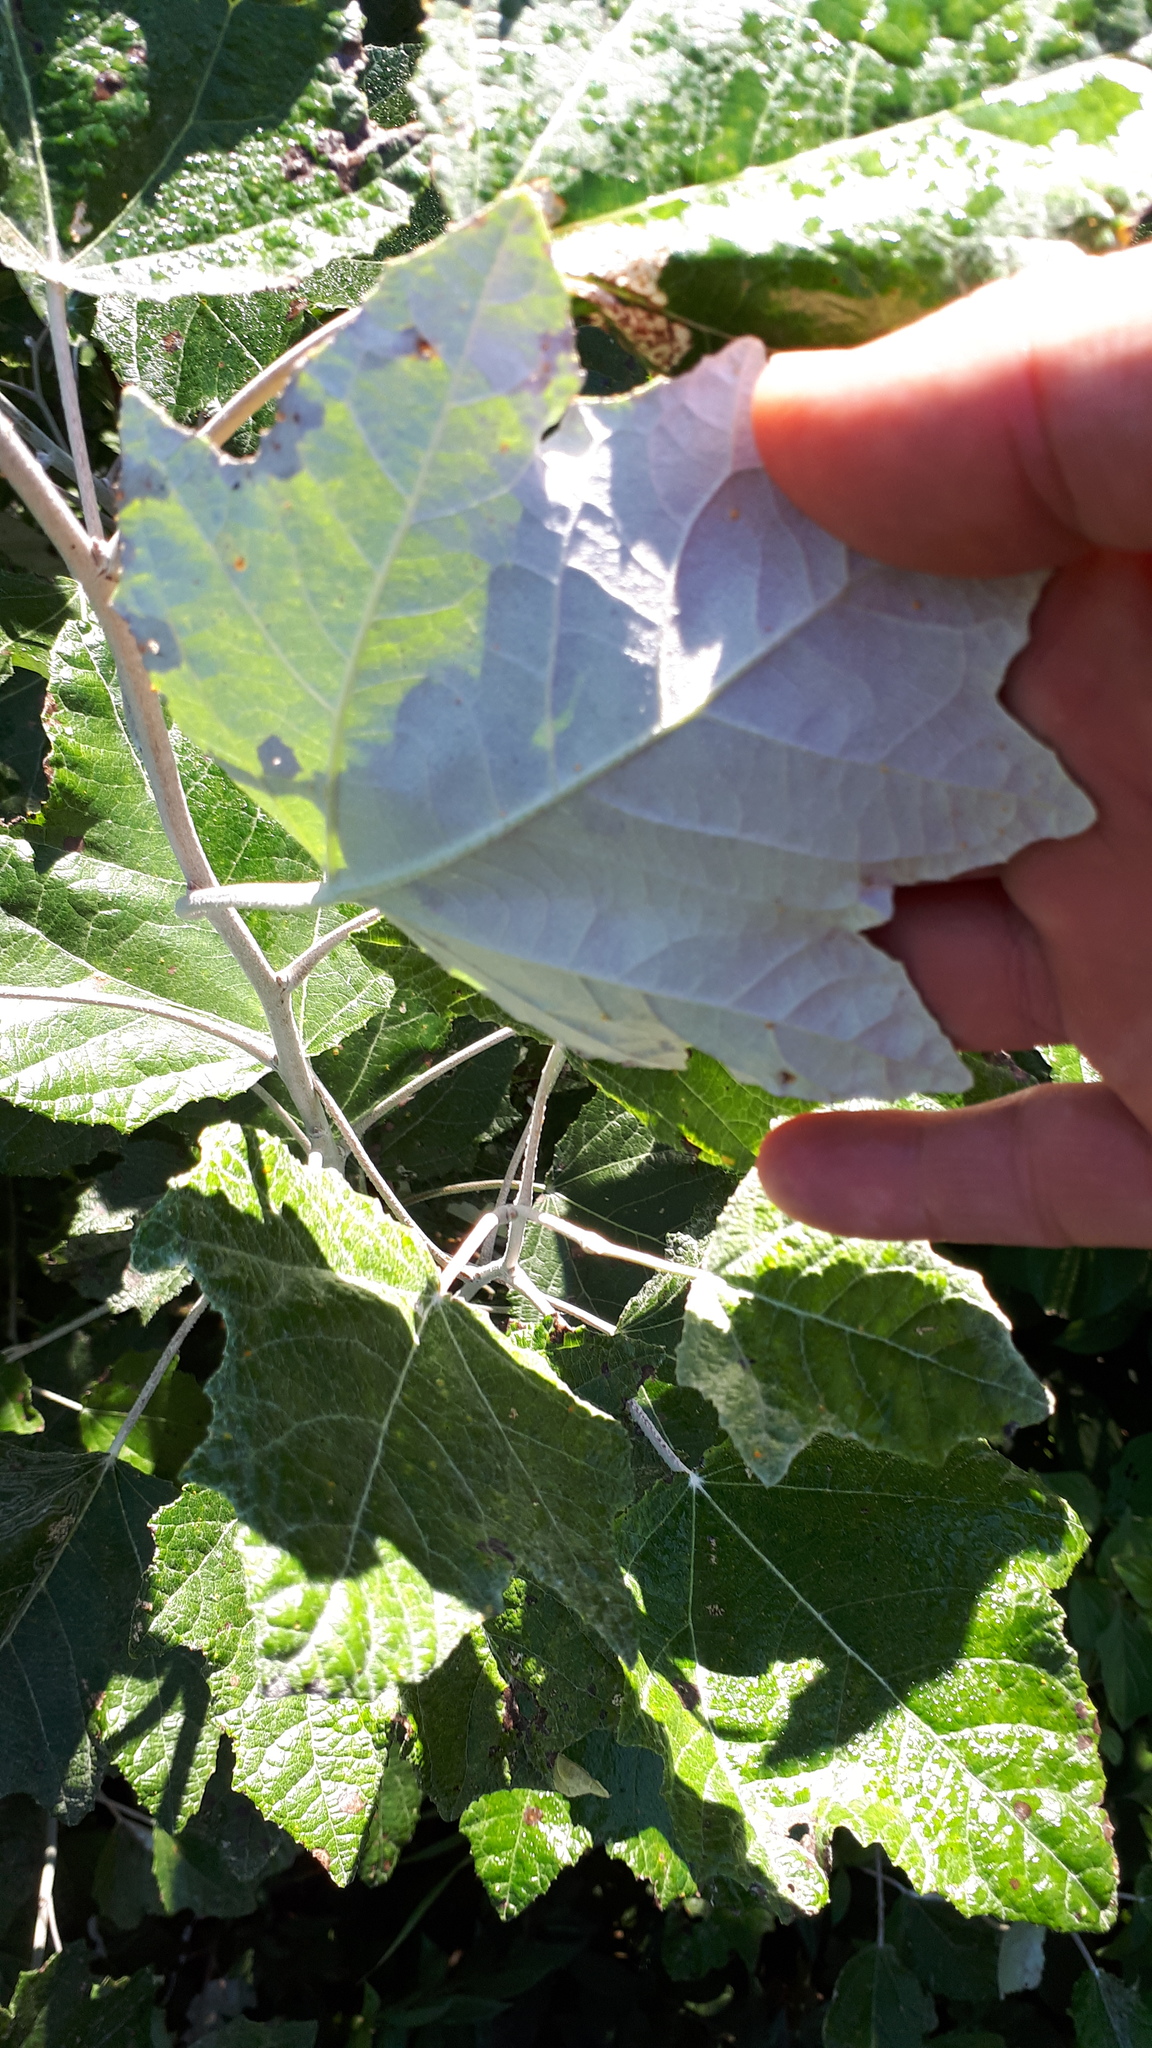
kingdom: Plantae
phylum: Tracheophyta
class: Magnoliopsida
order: Malpighiales
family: Salicaceae
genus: Populus
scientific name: Populus alba
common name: White poplar
